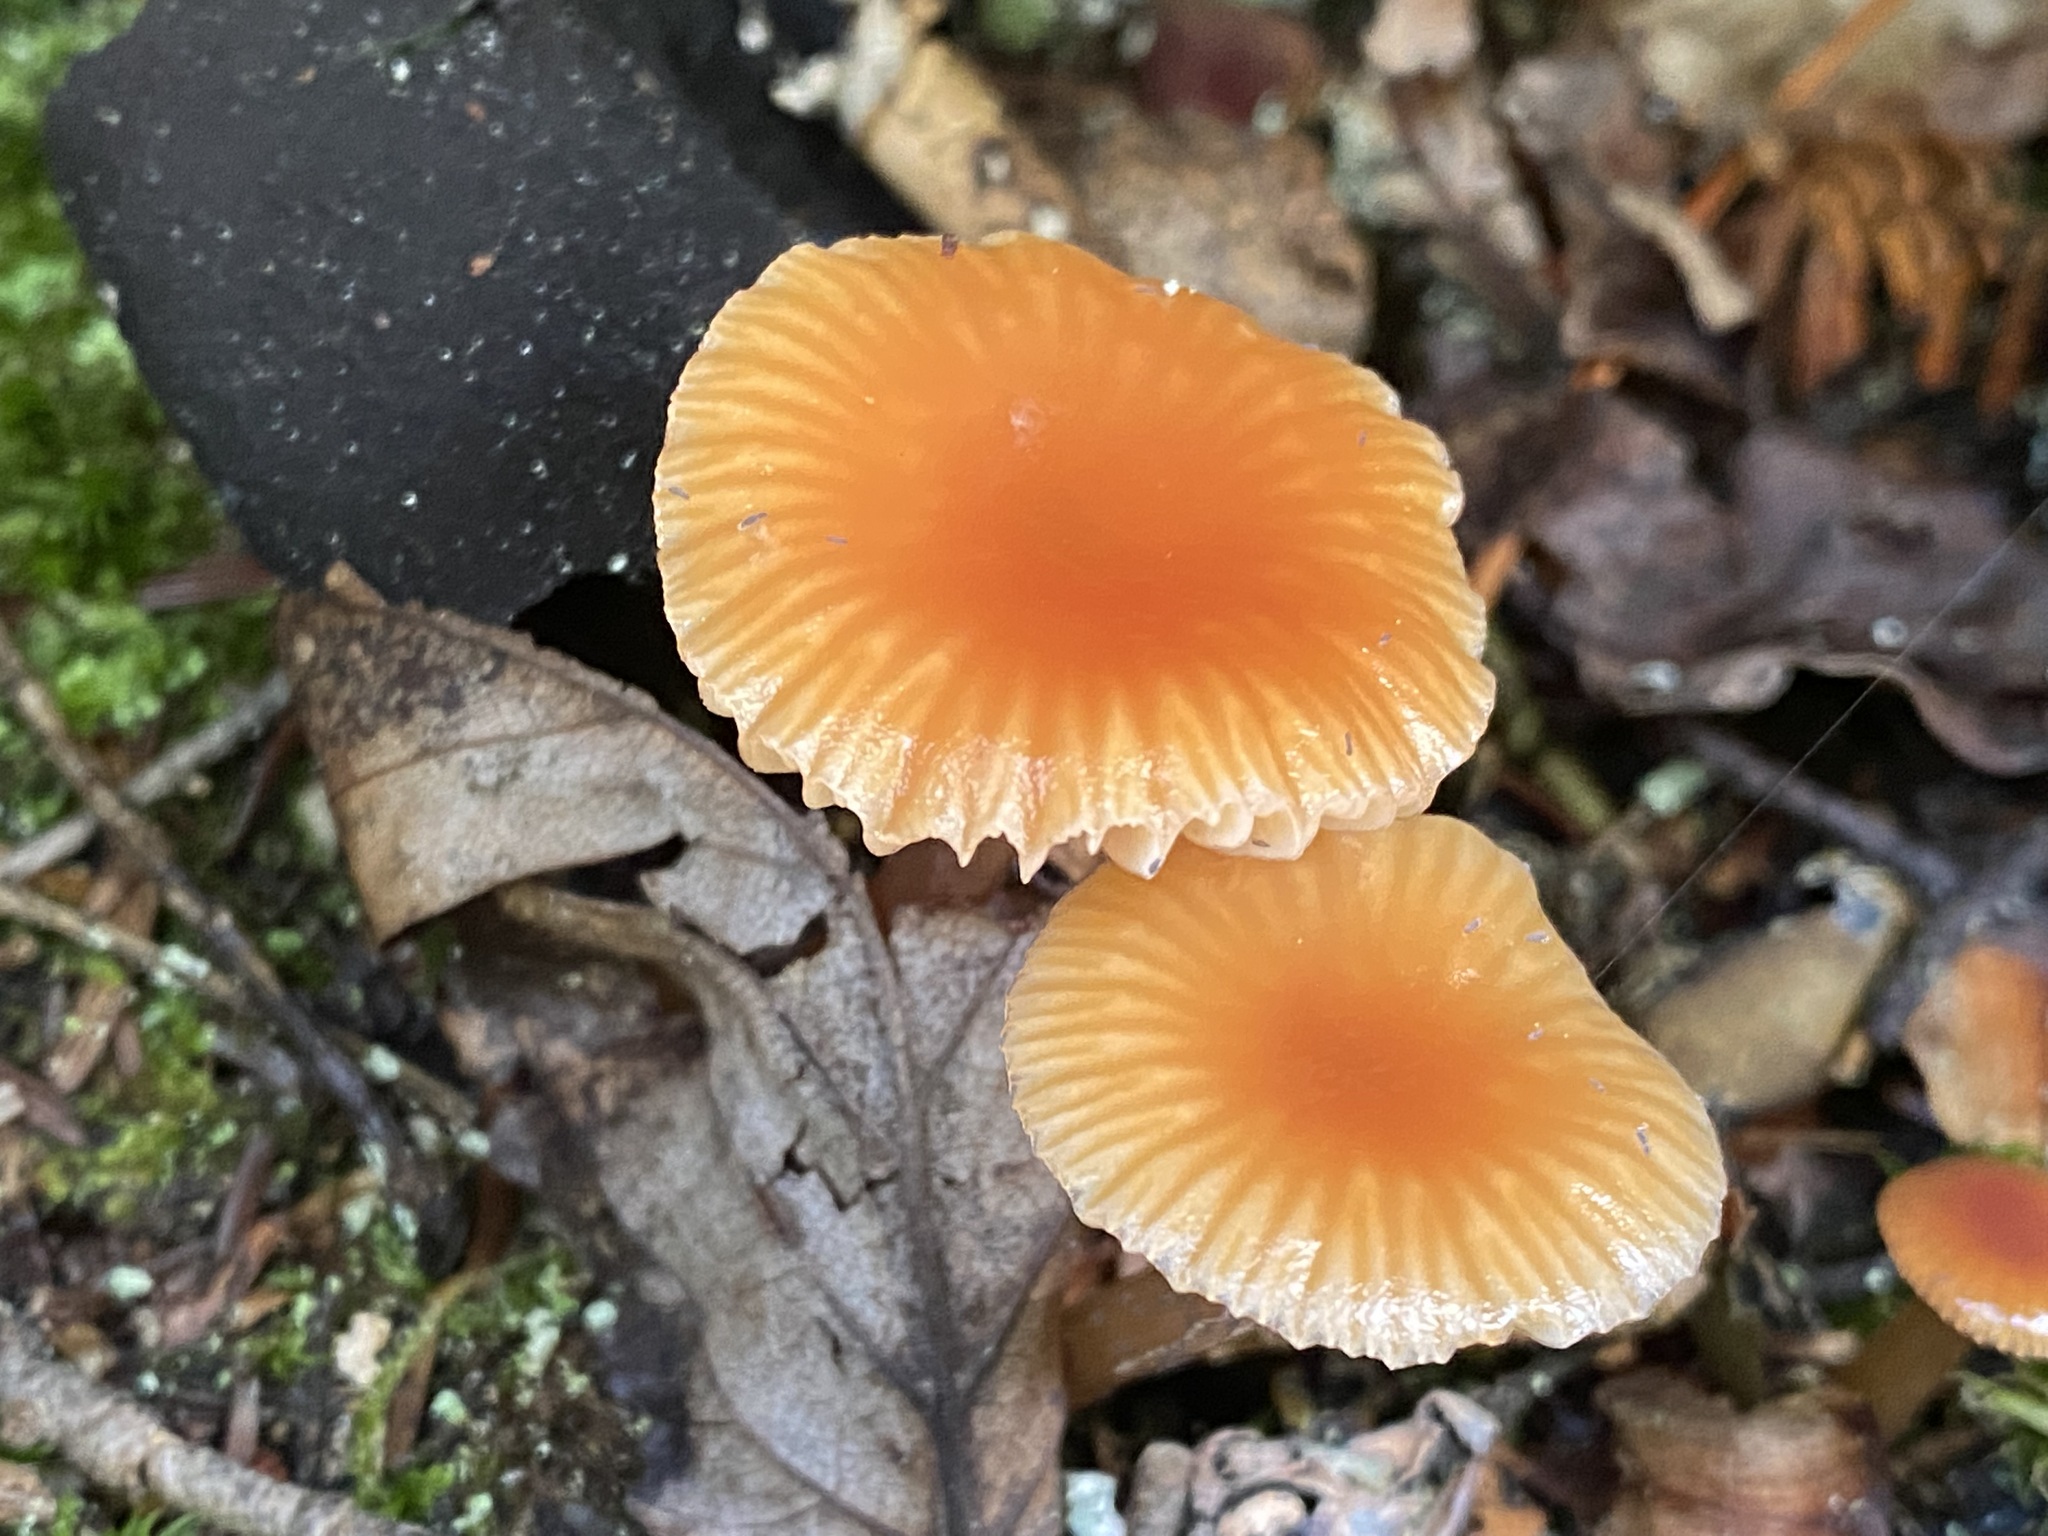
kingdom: Fungi
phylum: Basidiomycota
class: Agaricomycetes
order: Agaricales
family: Hygrophoraceae
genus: Gliophorus
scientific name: Gliophorus laetus
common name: Heath waxcap
